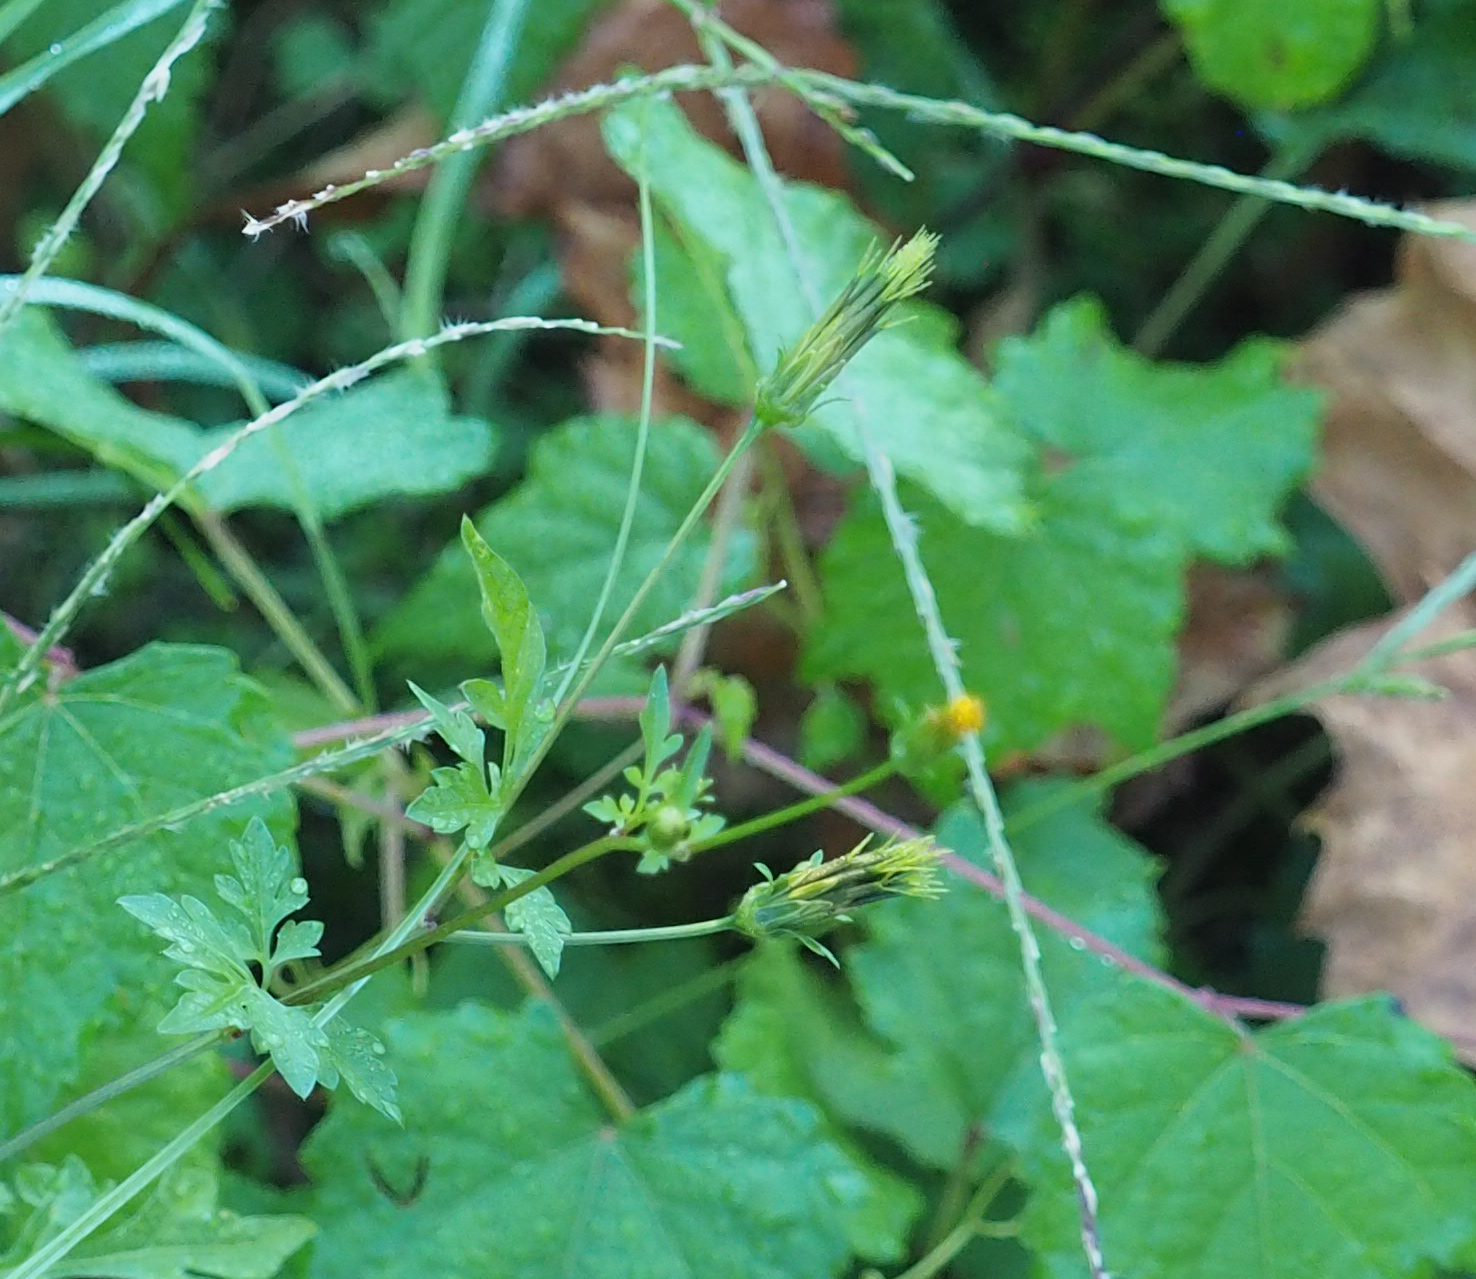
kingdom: Plantae
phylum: Tracheophyta
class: Magnoliopsida
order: Asterales
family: Asteraceae
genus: Bidens
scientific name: Bidens bipinnata
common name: Spanish-needles
